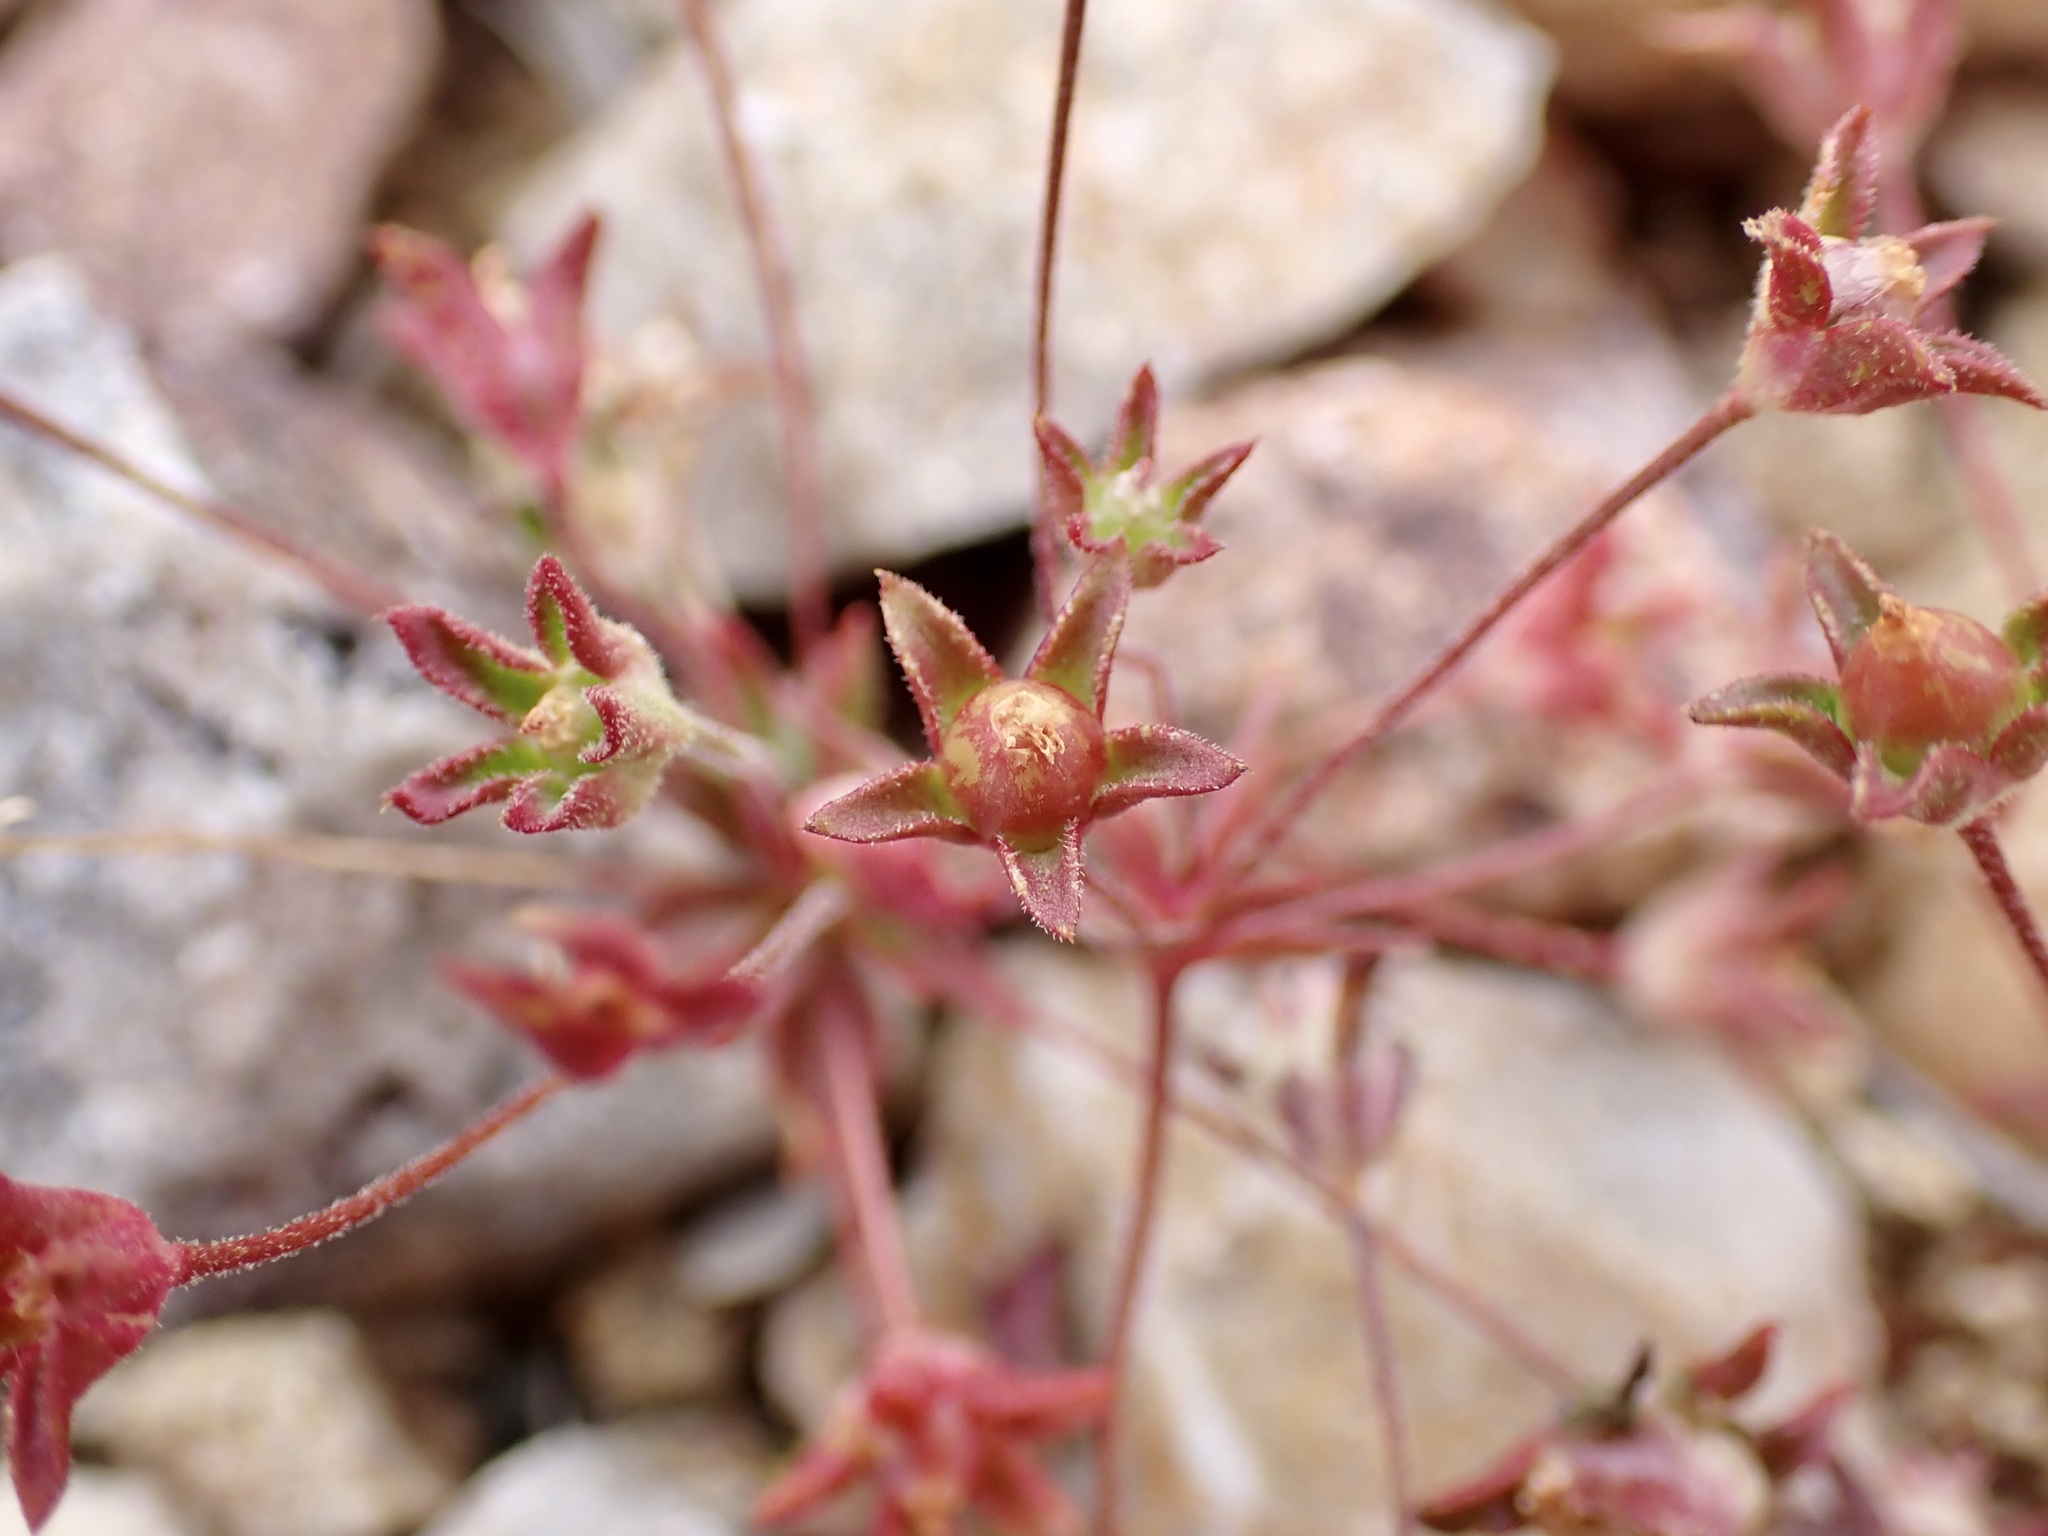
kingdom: Plantae
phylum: Tracheophyta
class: Magnoliopsida
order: Ericales
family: Primulaceae
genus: Androsace
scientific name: Androsace occidentalis
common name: West rock-jasmine
